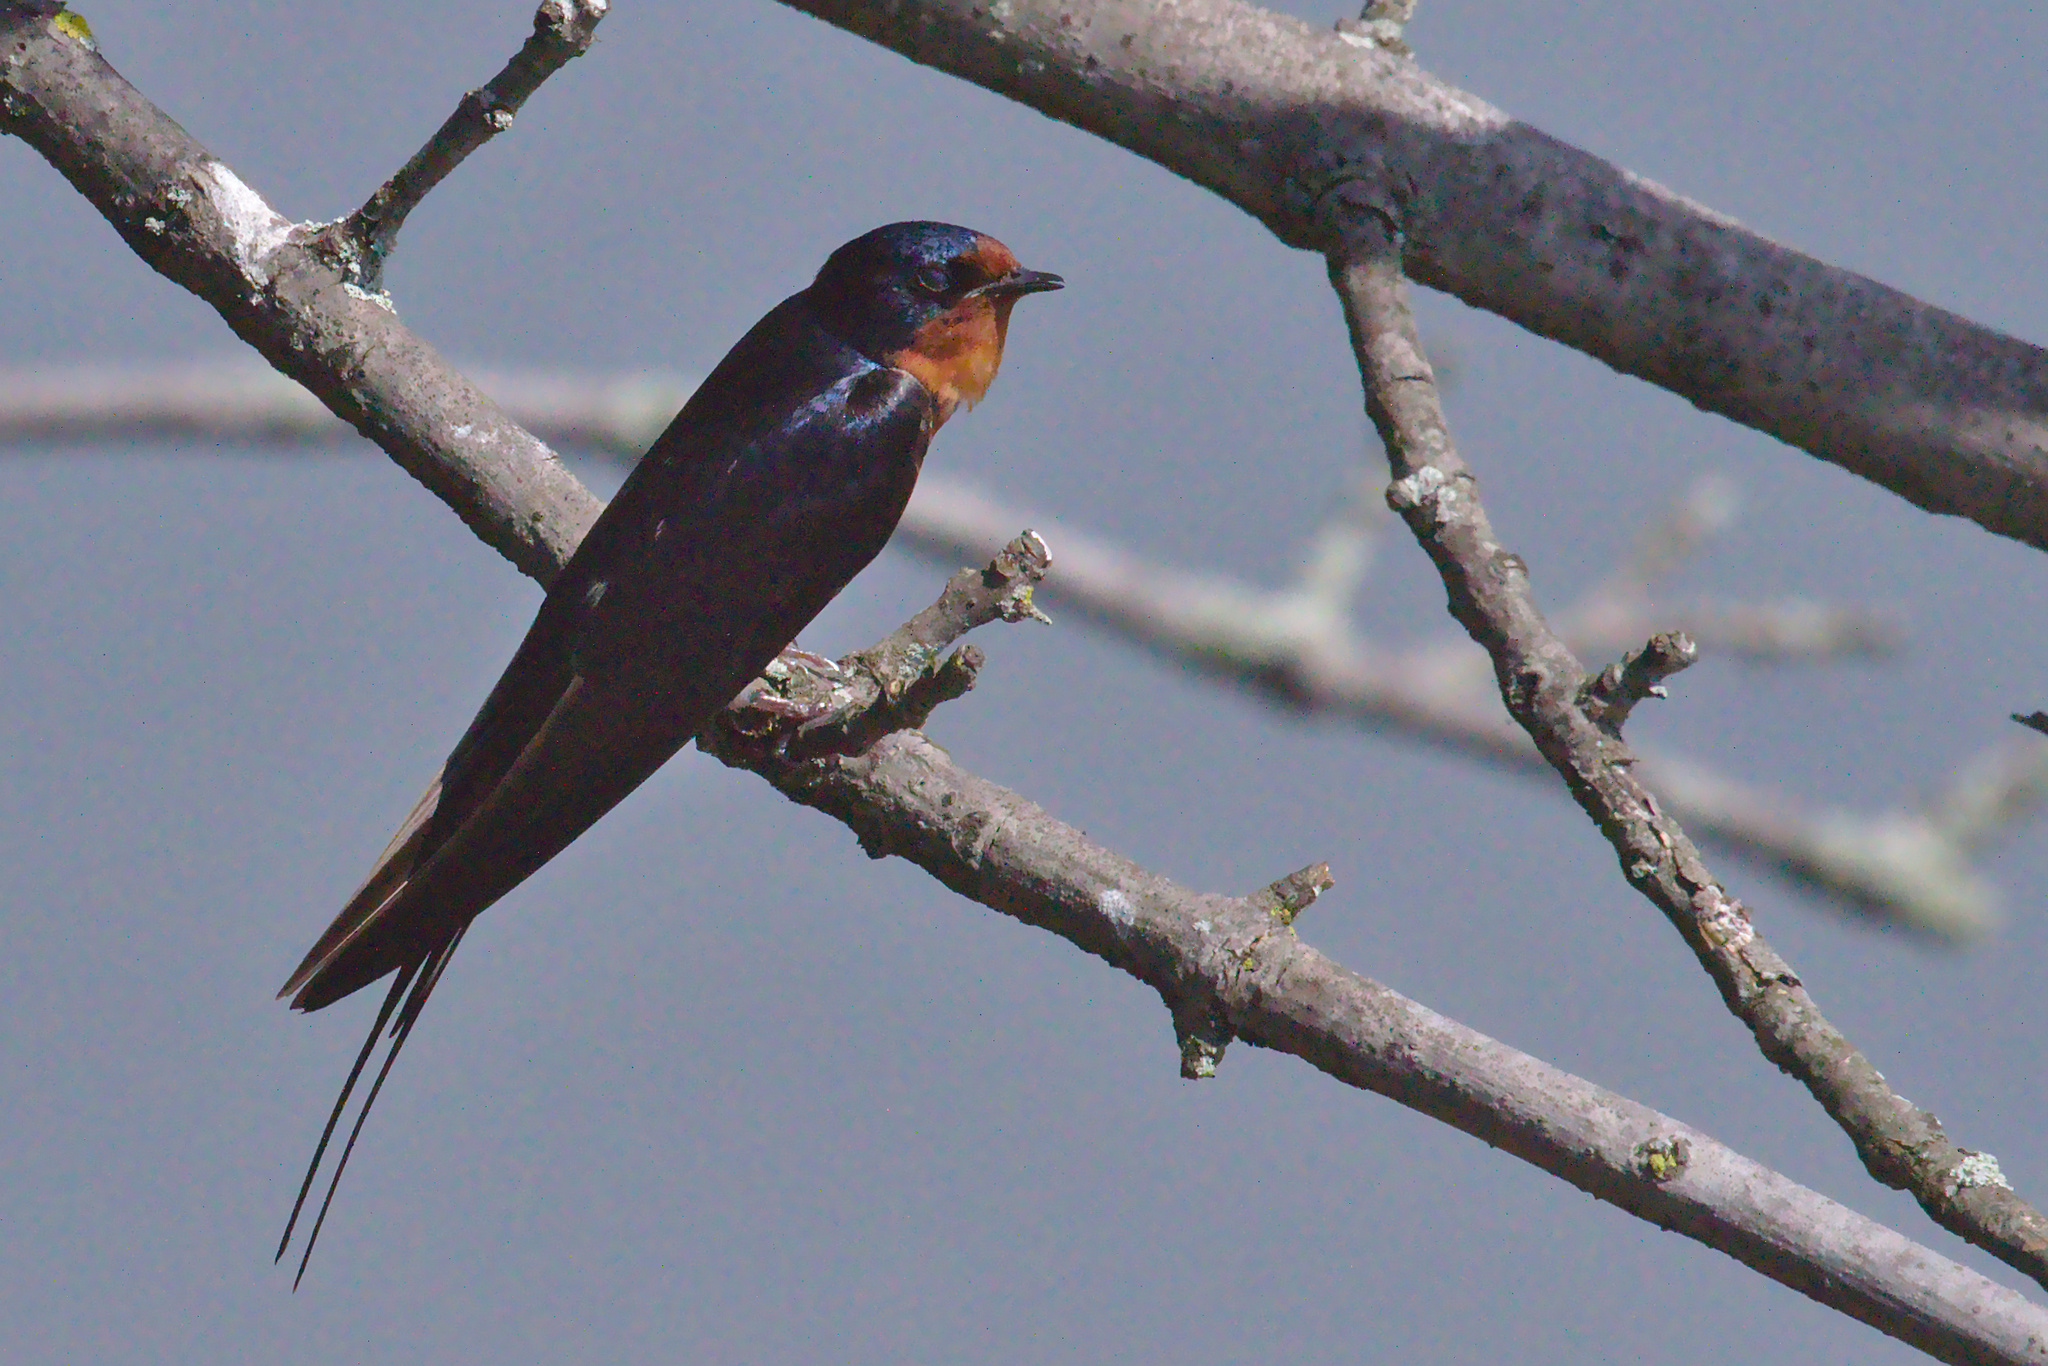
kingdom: Animalia
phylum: Chordata
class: Aves
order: Passeriformes
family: Hirundinidae
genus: Hirundo
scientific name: Hirundo rustica
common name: Barn swallow
